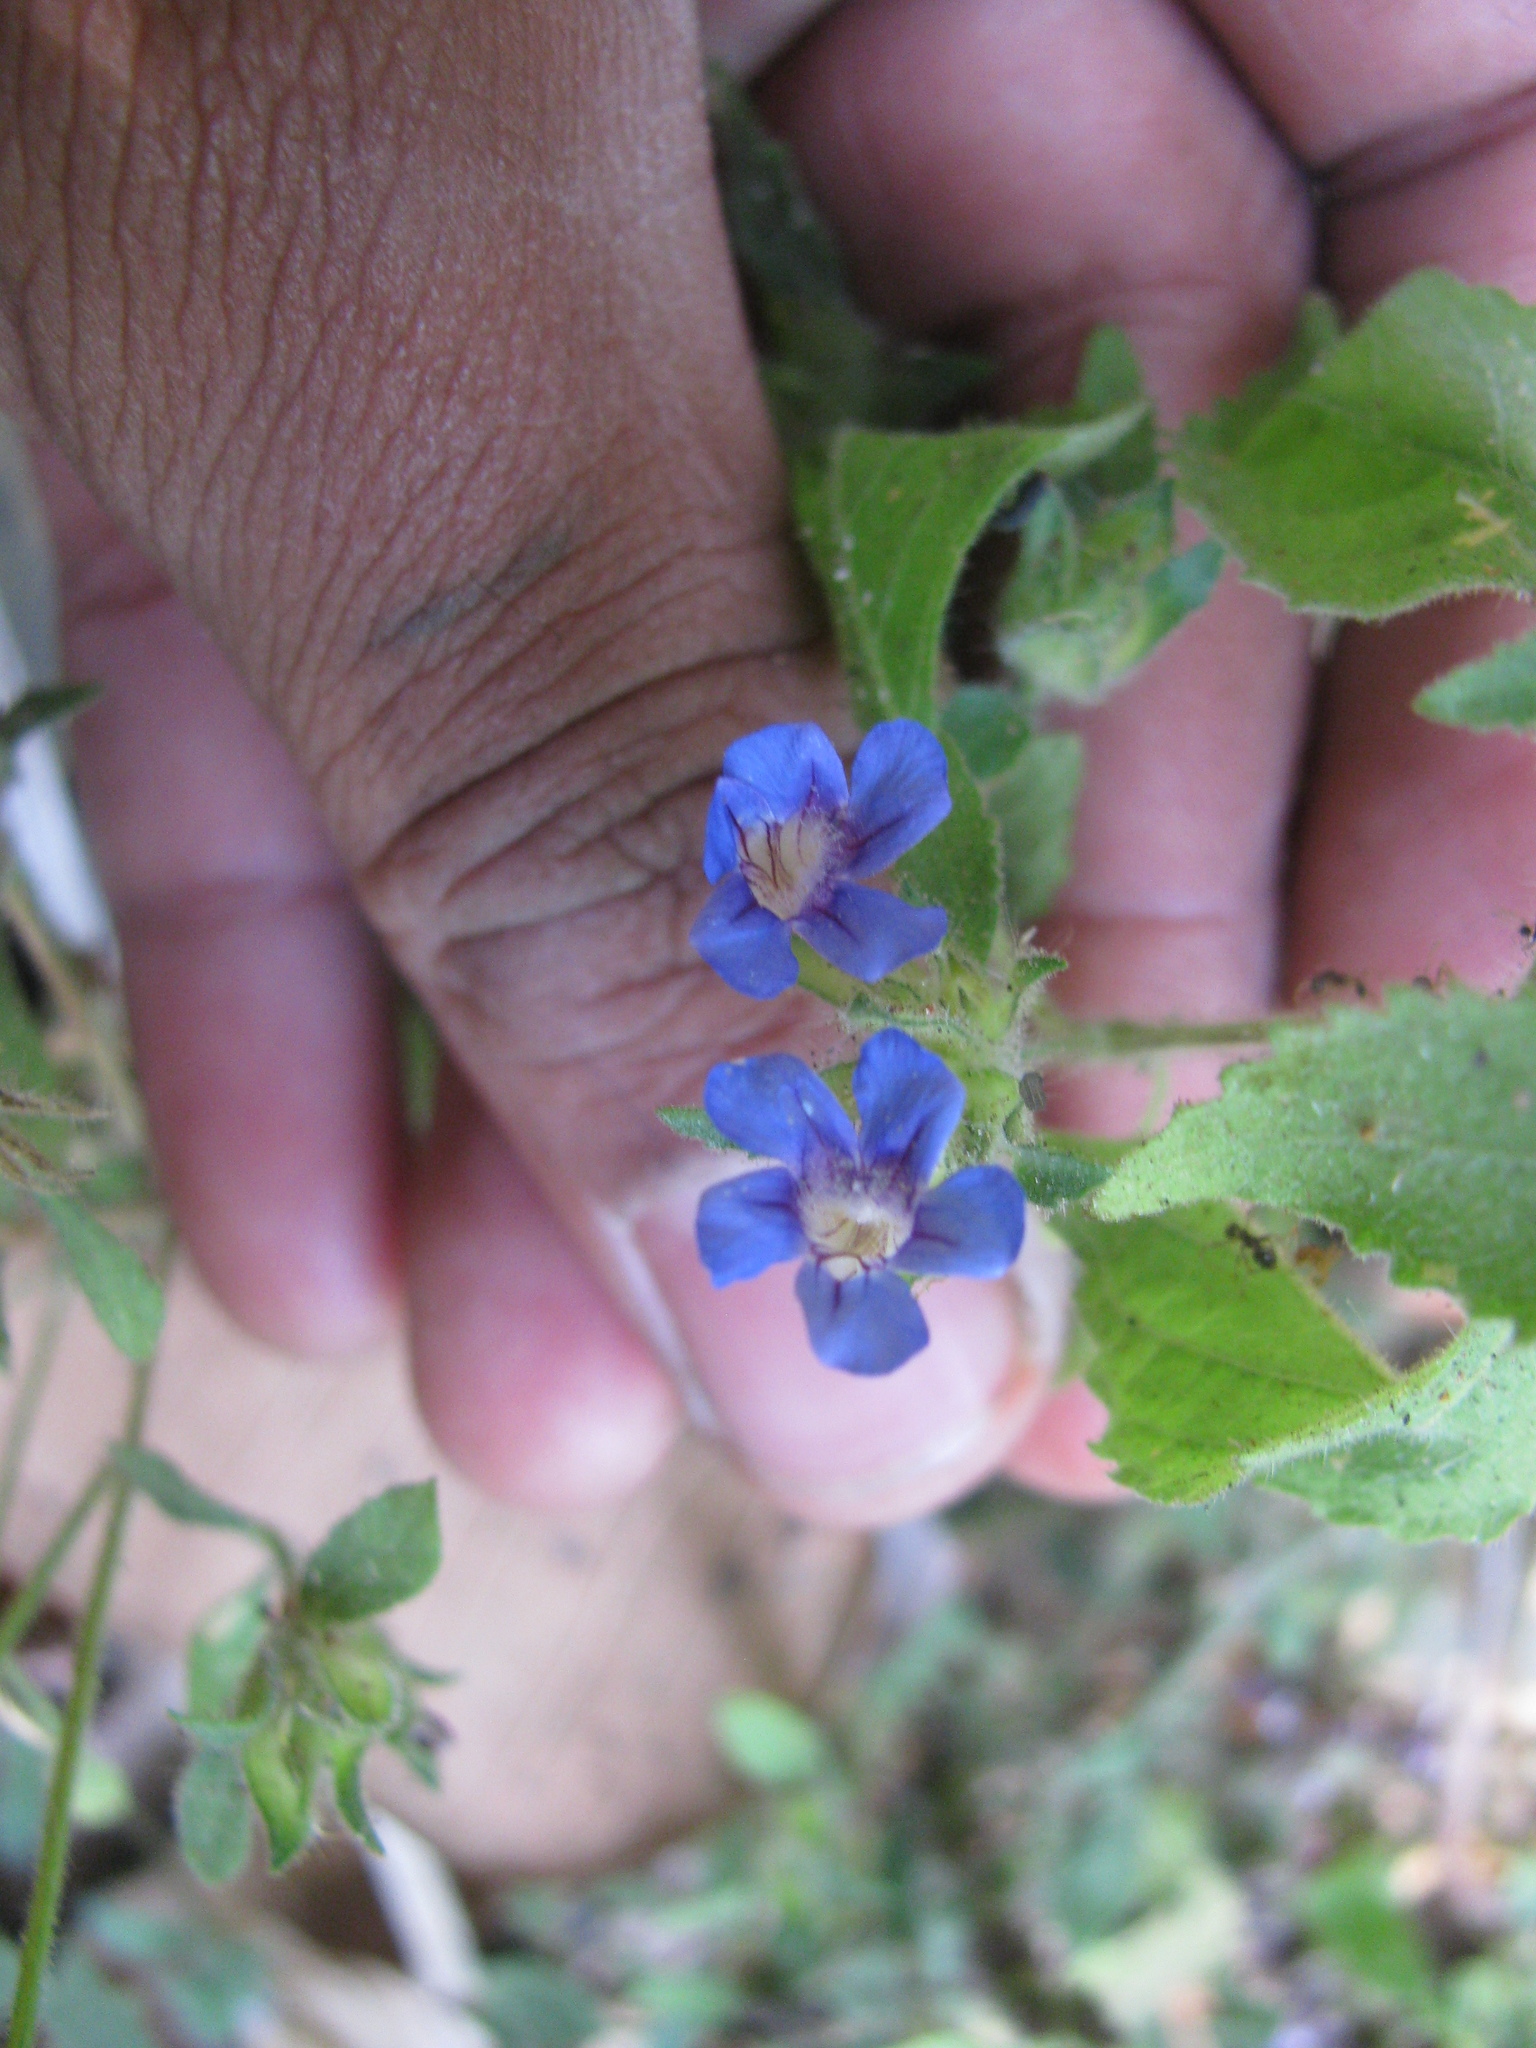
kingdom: Plantae
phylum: Tracheophyta
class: Magnoliopsida
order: Lamiales
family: Acanthaceae
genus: Strobilanthes
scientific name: Strobilanthes pavala
